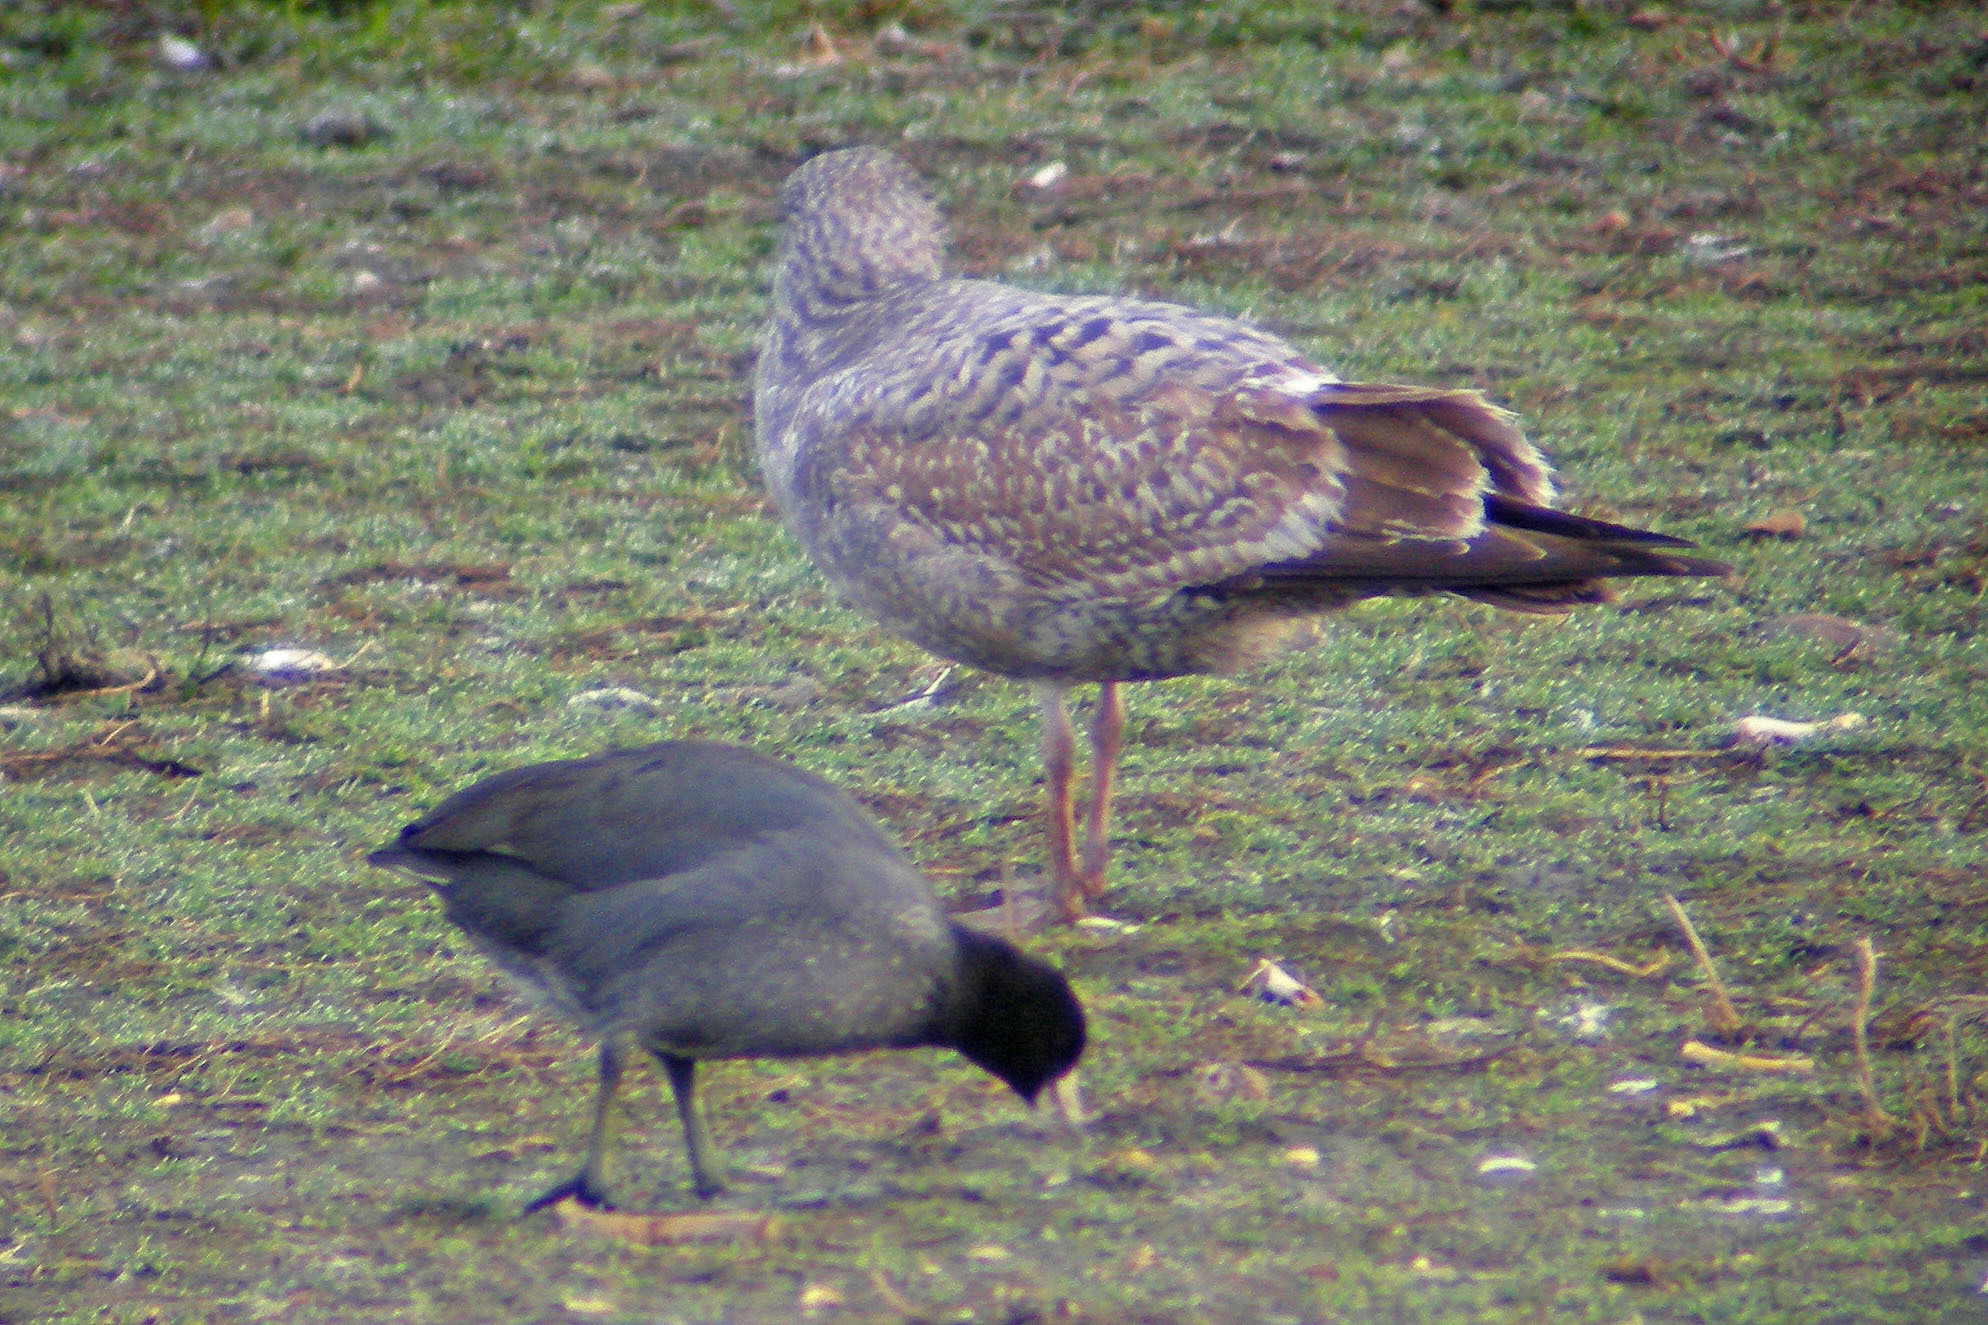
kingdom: Animalia
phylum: Chordata
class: Aves
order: Gruiformes
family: Rallidae
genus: Fulica
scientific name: Fulica americana
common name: American coot
